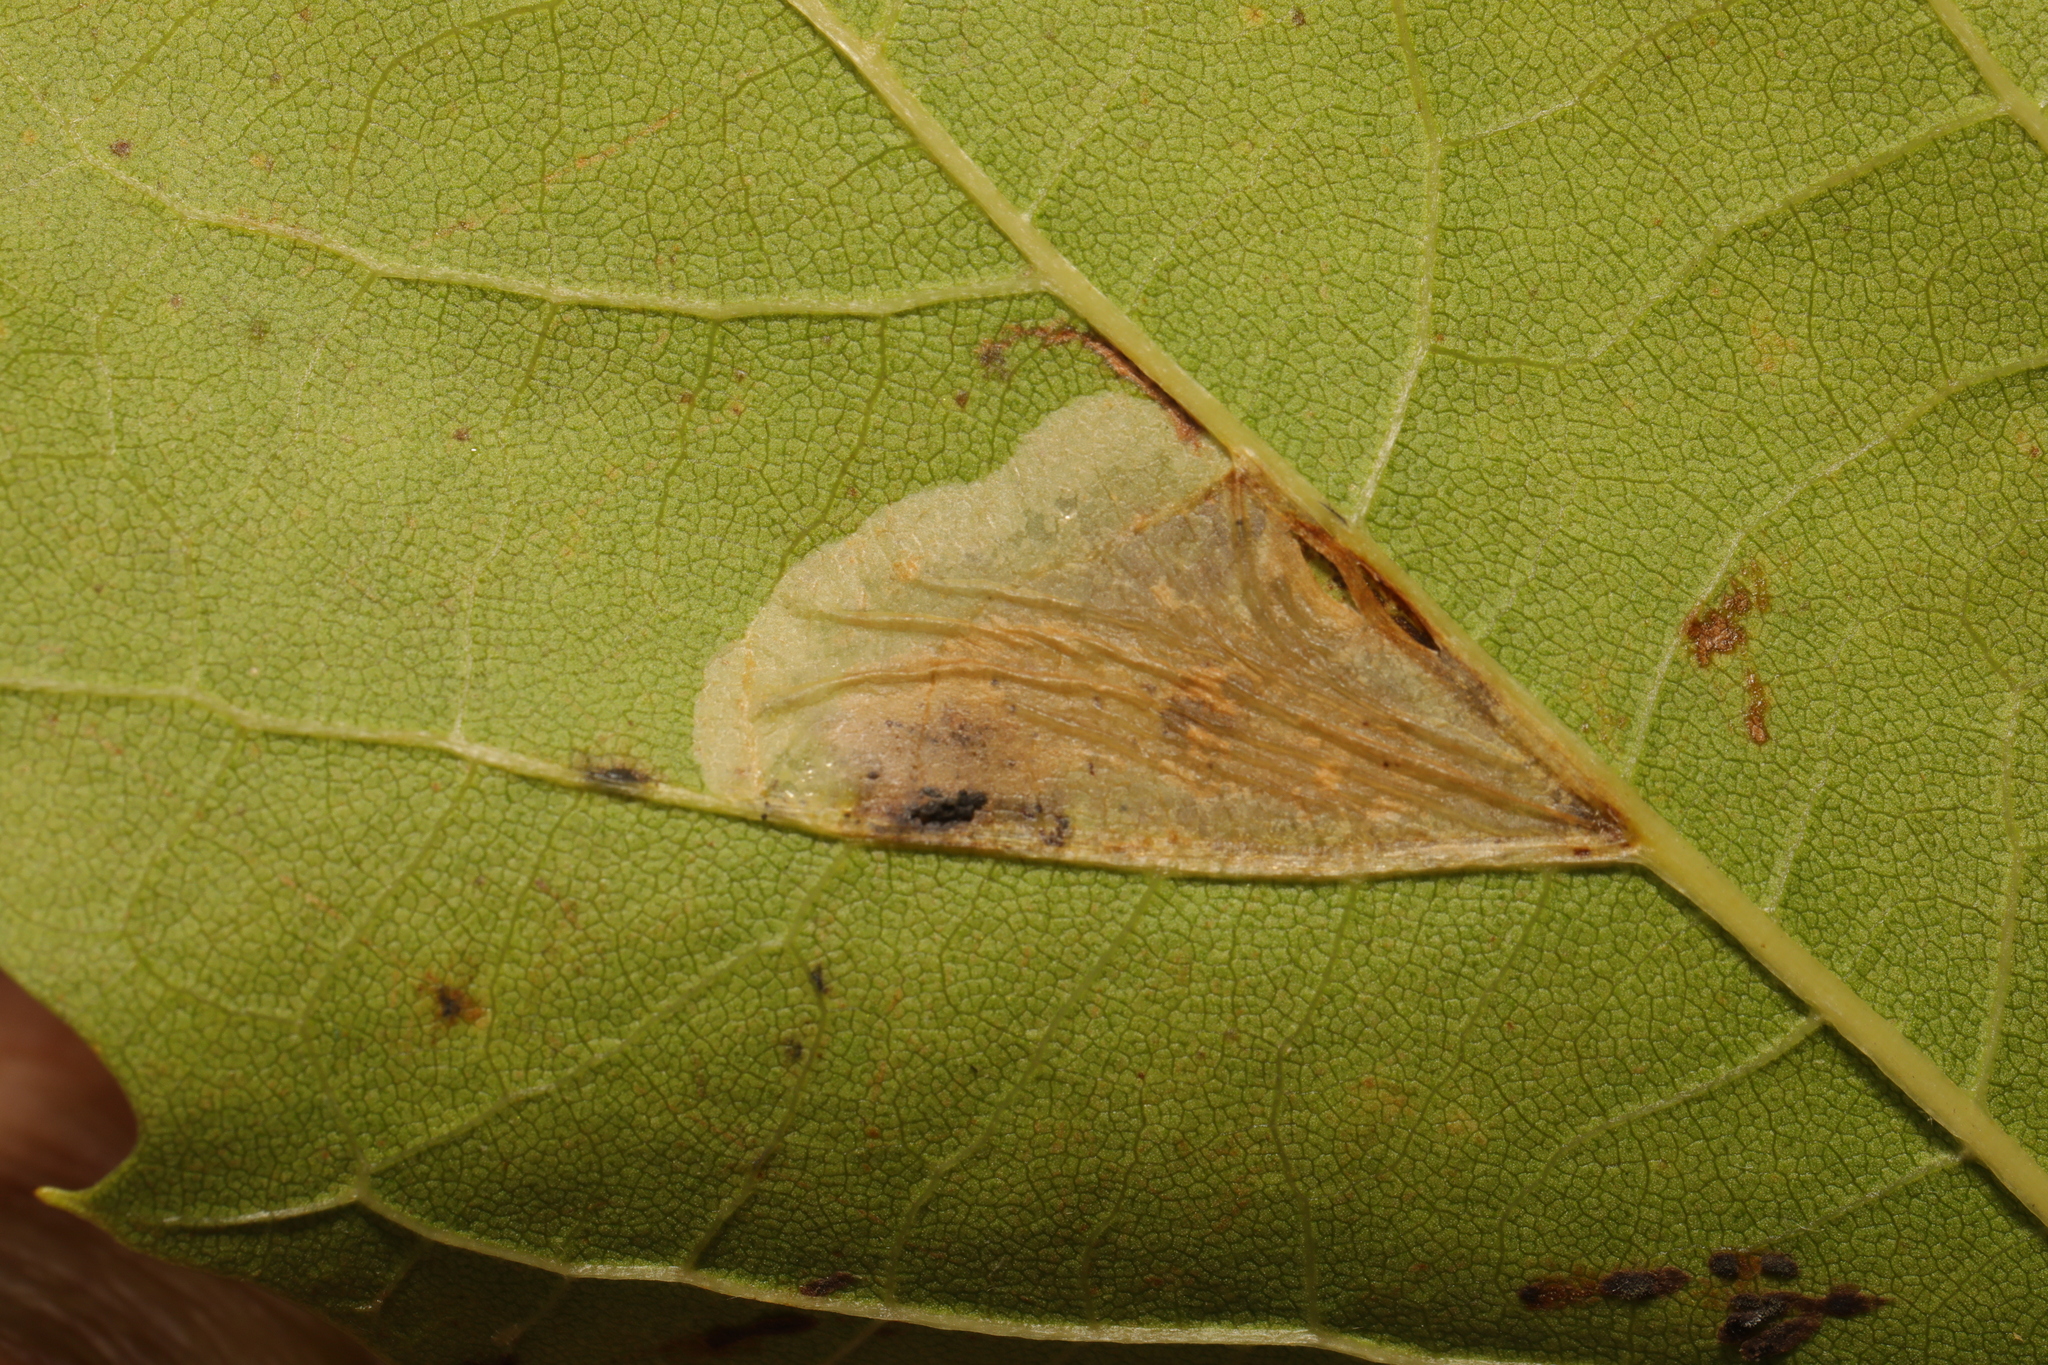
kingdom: Animalia
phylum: Arthropoda
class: Insecta
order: Lepidoptera
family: Gracillariidae
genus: Phyllonorycter
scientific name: Phyllonorycter platani
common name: London midget
